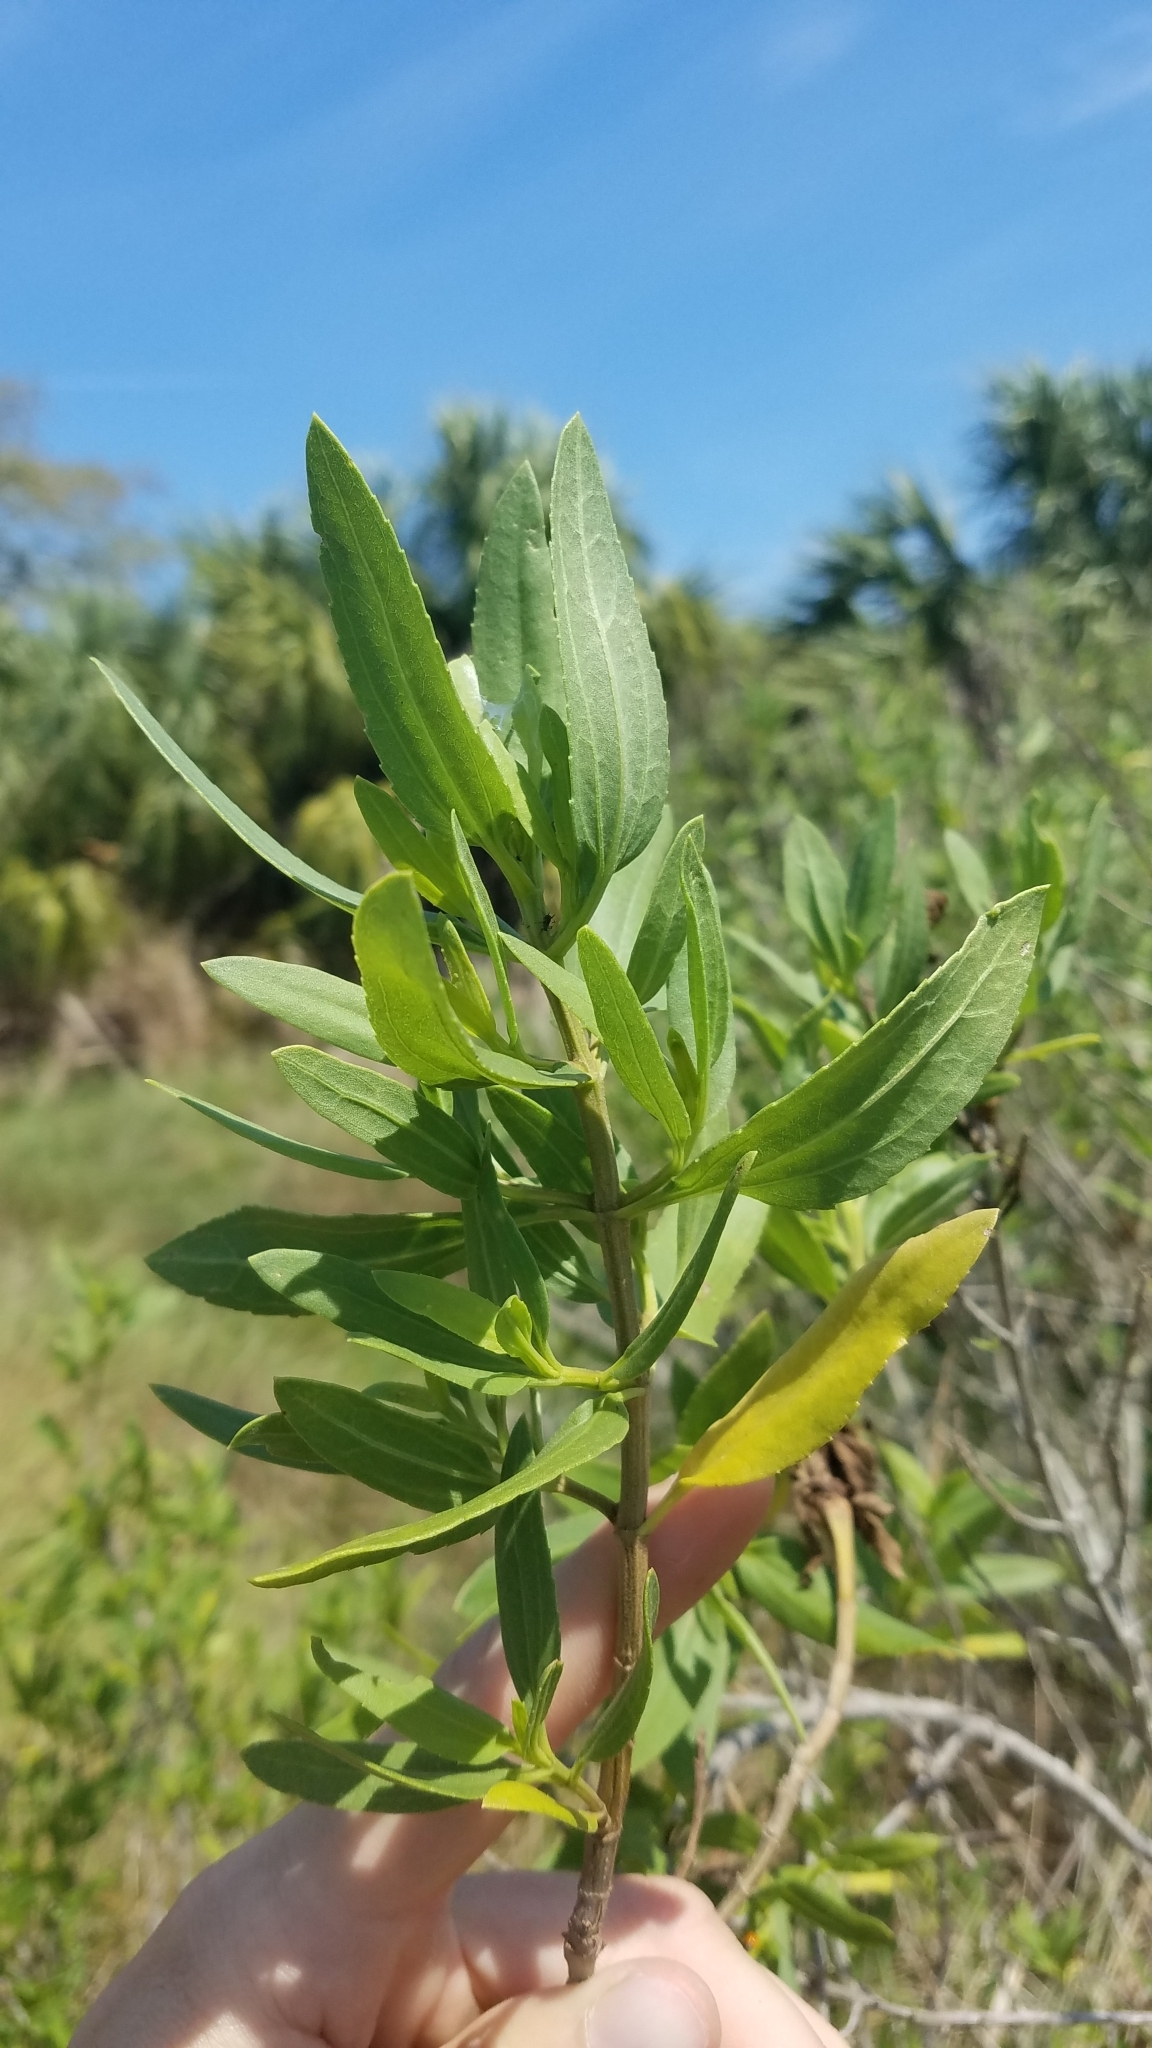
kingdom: Plantae
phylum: Tracheophyta
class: Magnoliopsida
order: Asterales
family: Asteraceae
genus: Iva
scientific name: Iva frutescens
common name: Big-leaved marsh-elder
